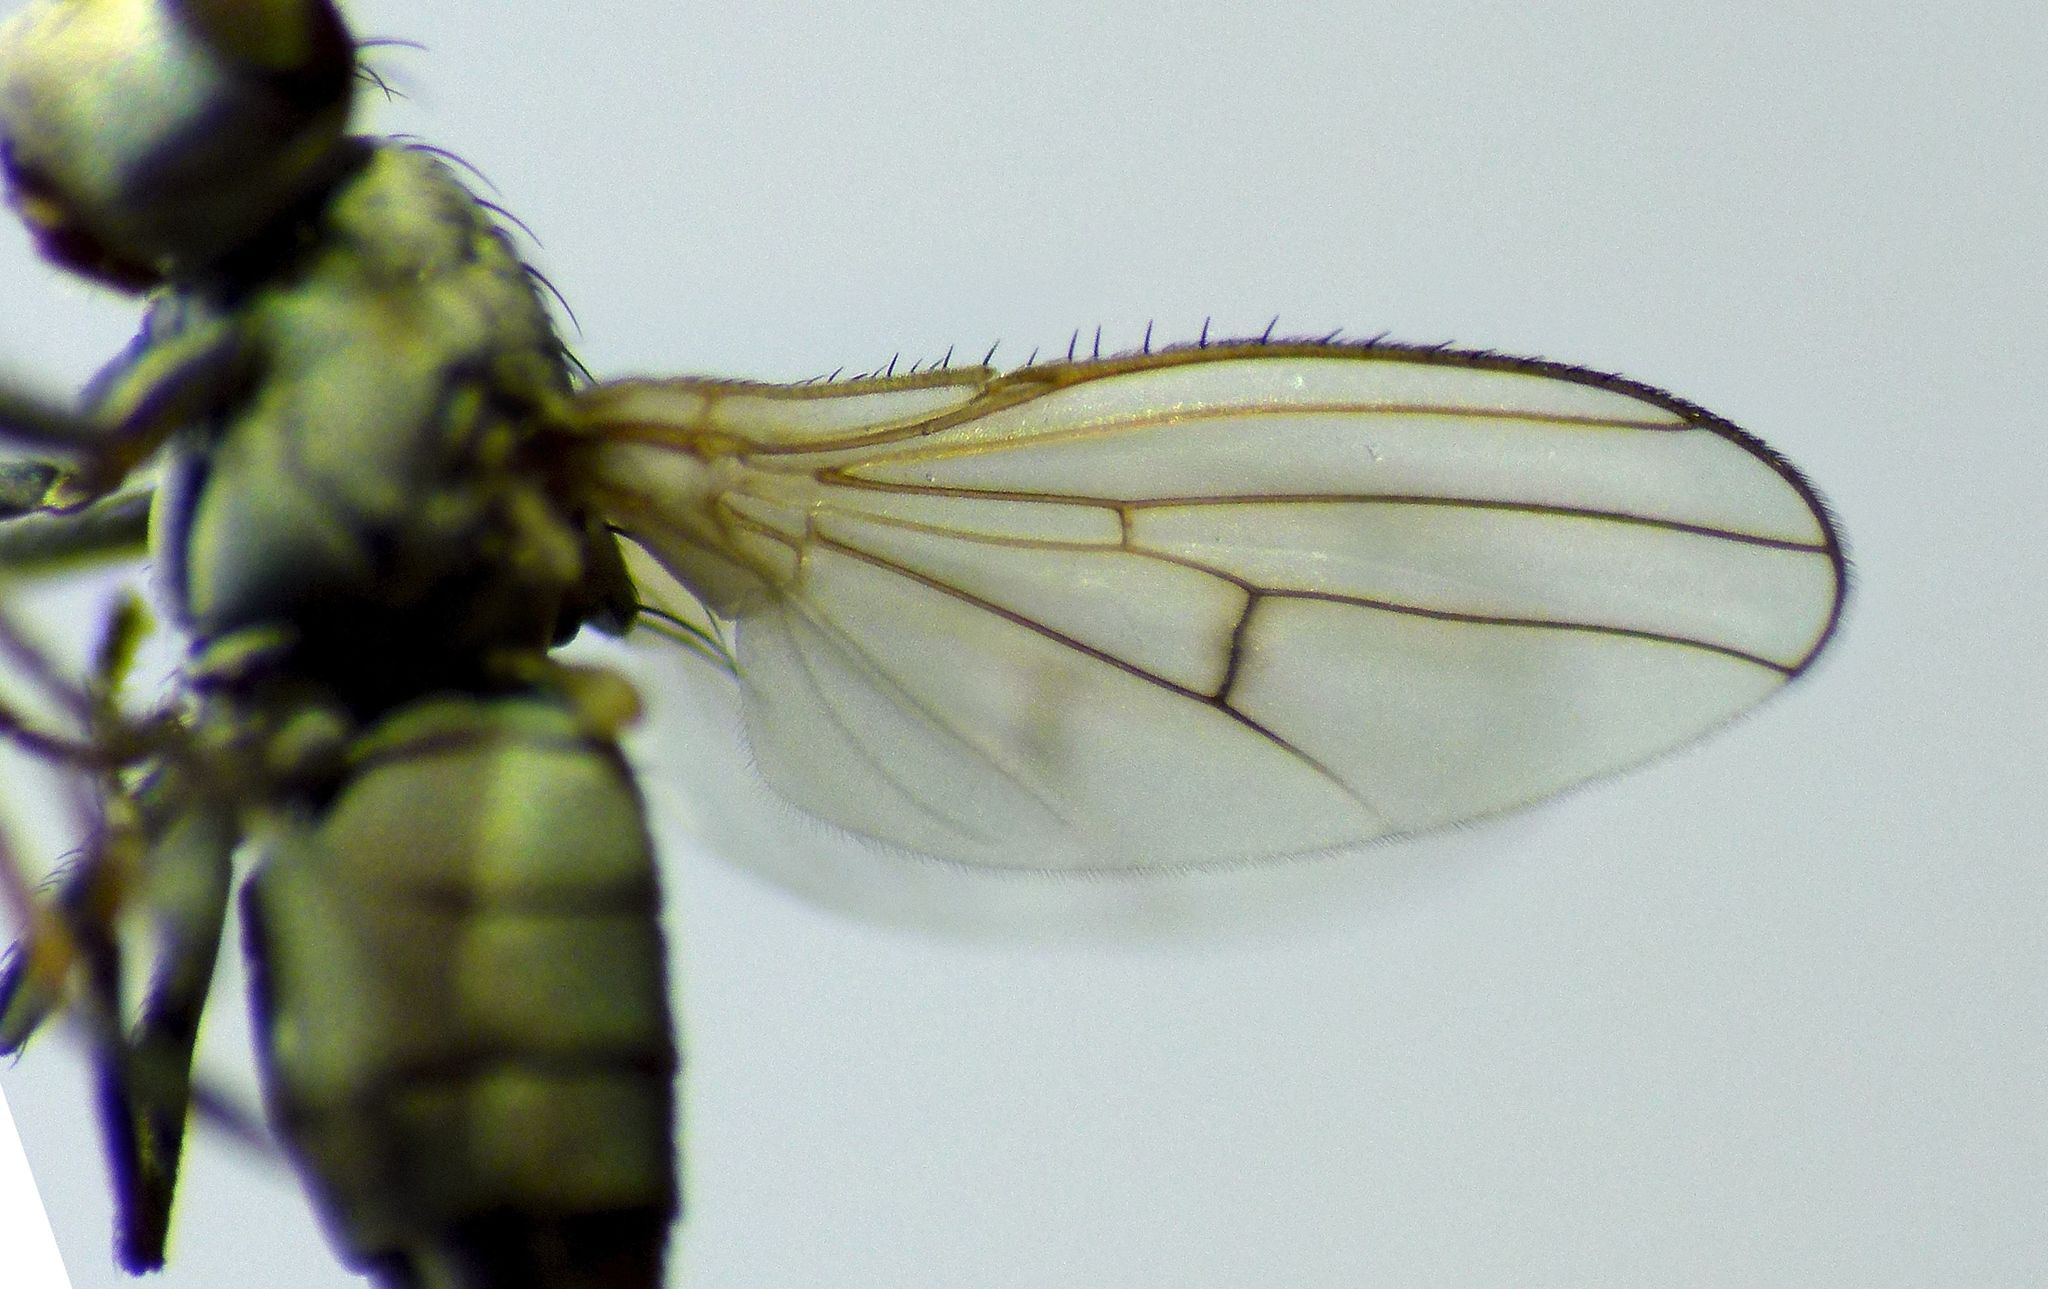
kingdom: Animalia
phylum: Arthropoda
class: Insecta
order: Diptera
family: Canacidae
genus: Tethinosoma
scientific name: Tethinosoma fulvifrons
